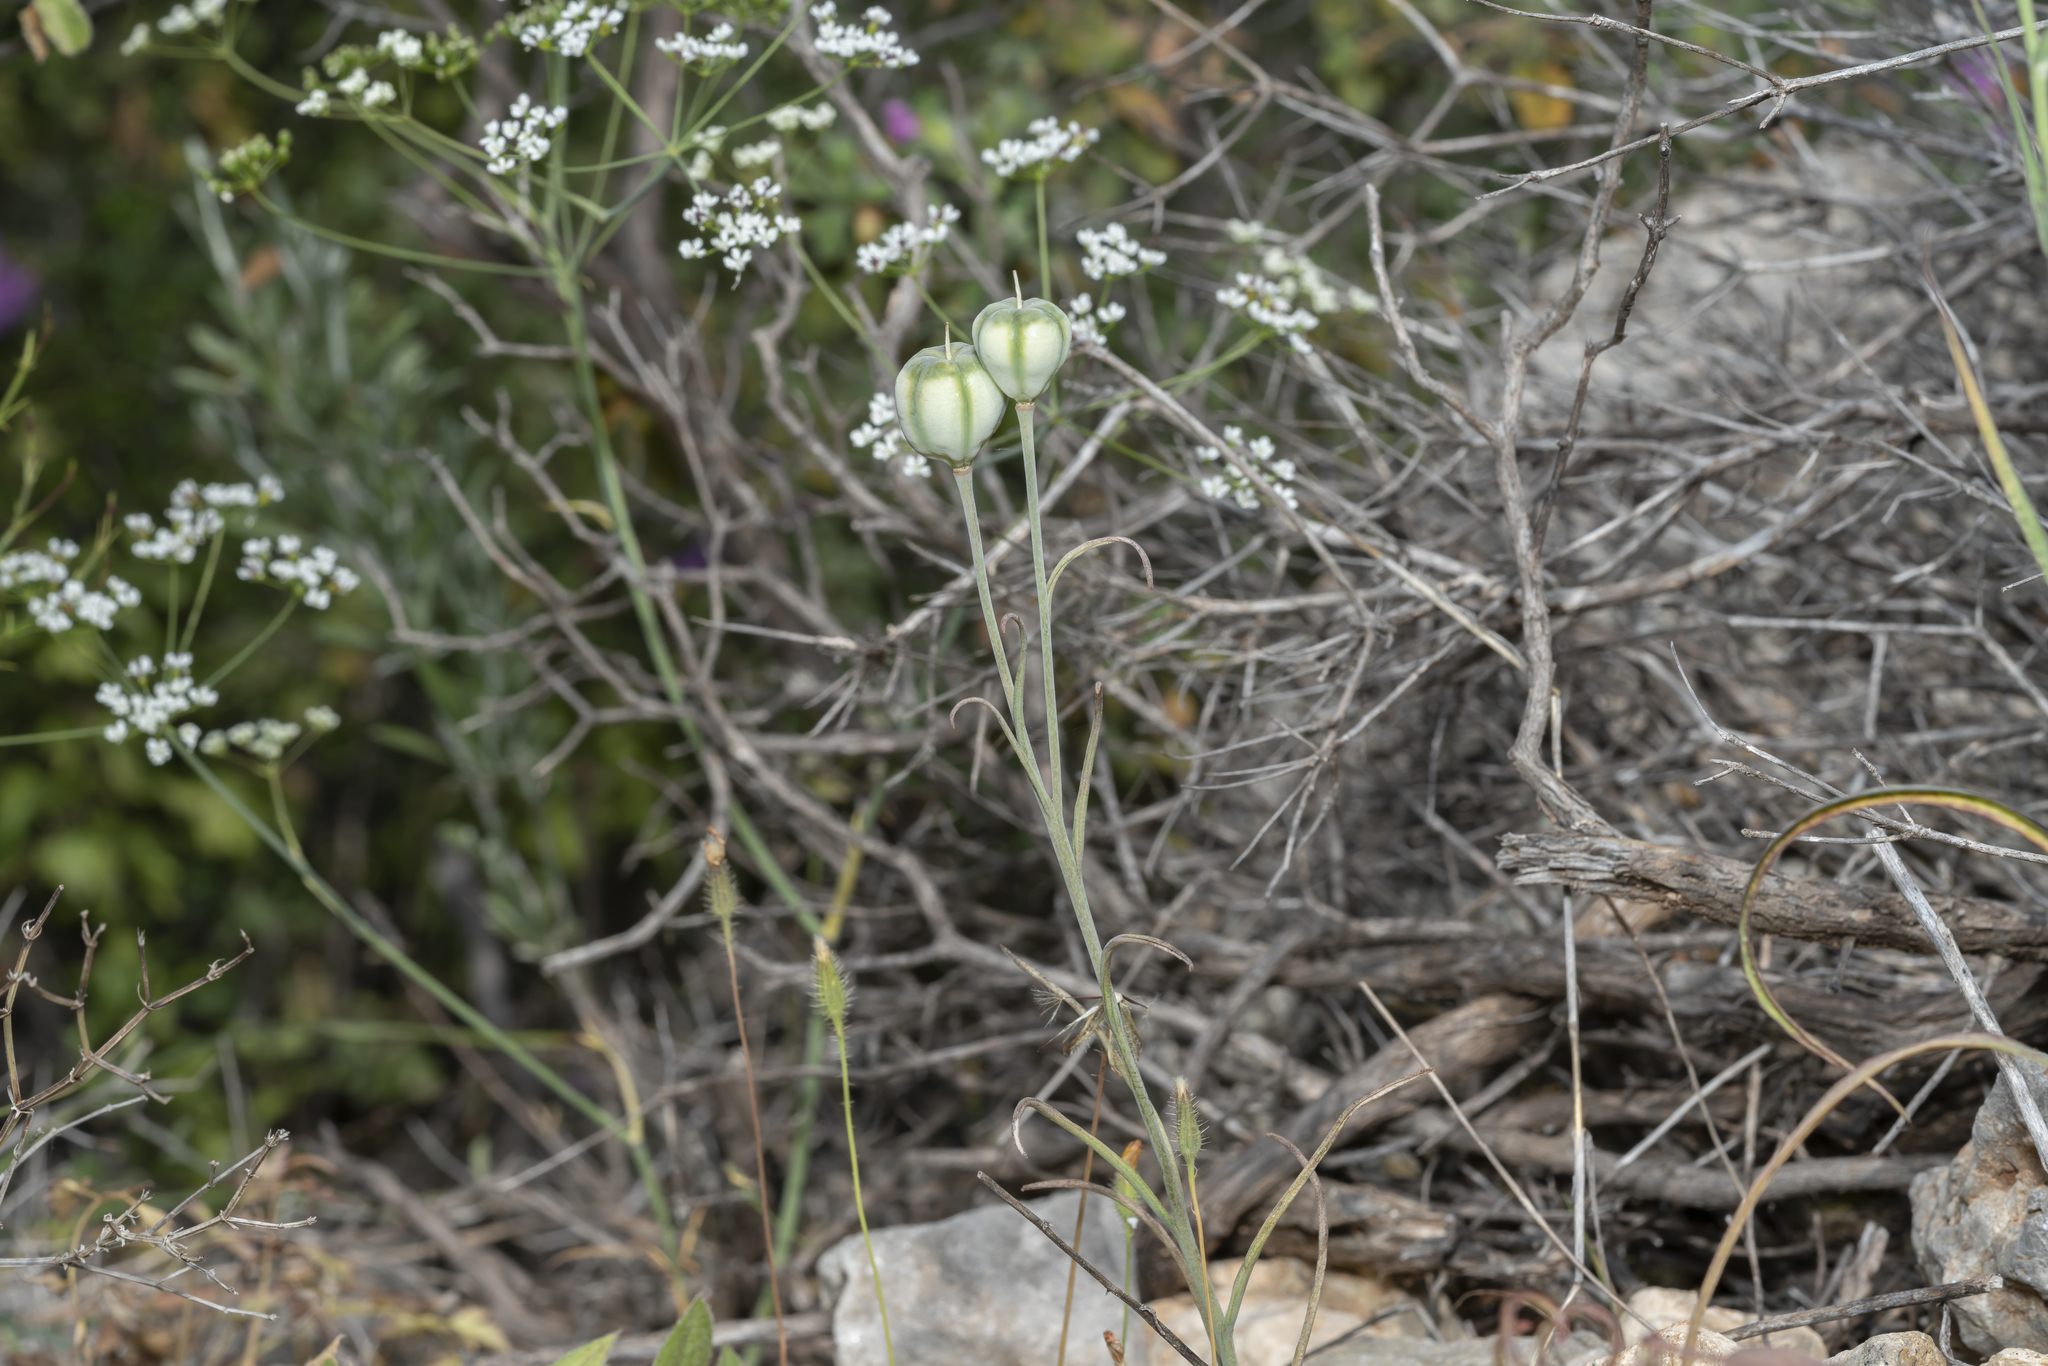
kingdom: Plantae
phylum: Tracheophyta
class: Liliopsida
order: Liliales
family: Liliaceae
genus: Fritillaria
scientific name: Fritillaria rhodia
